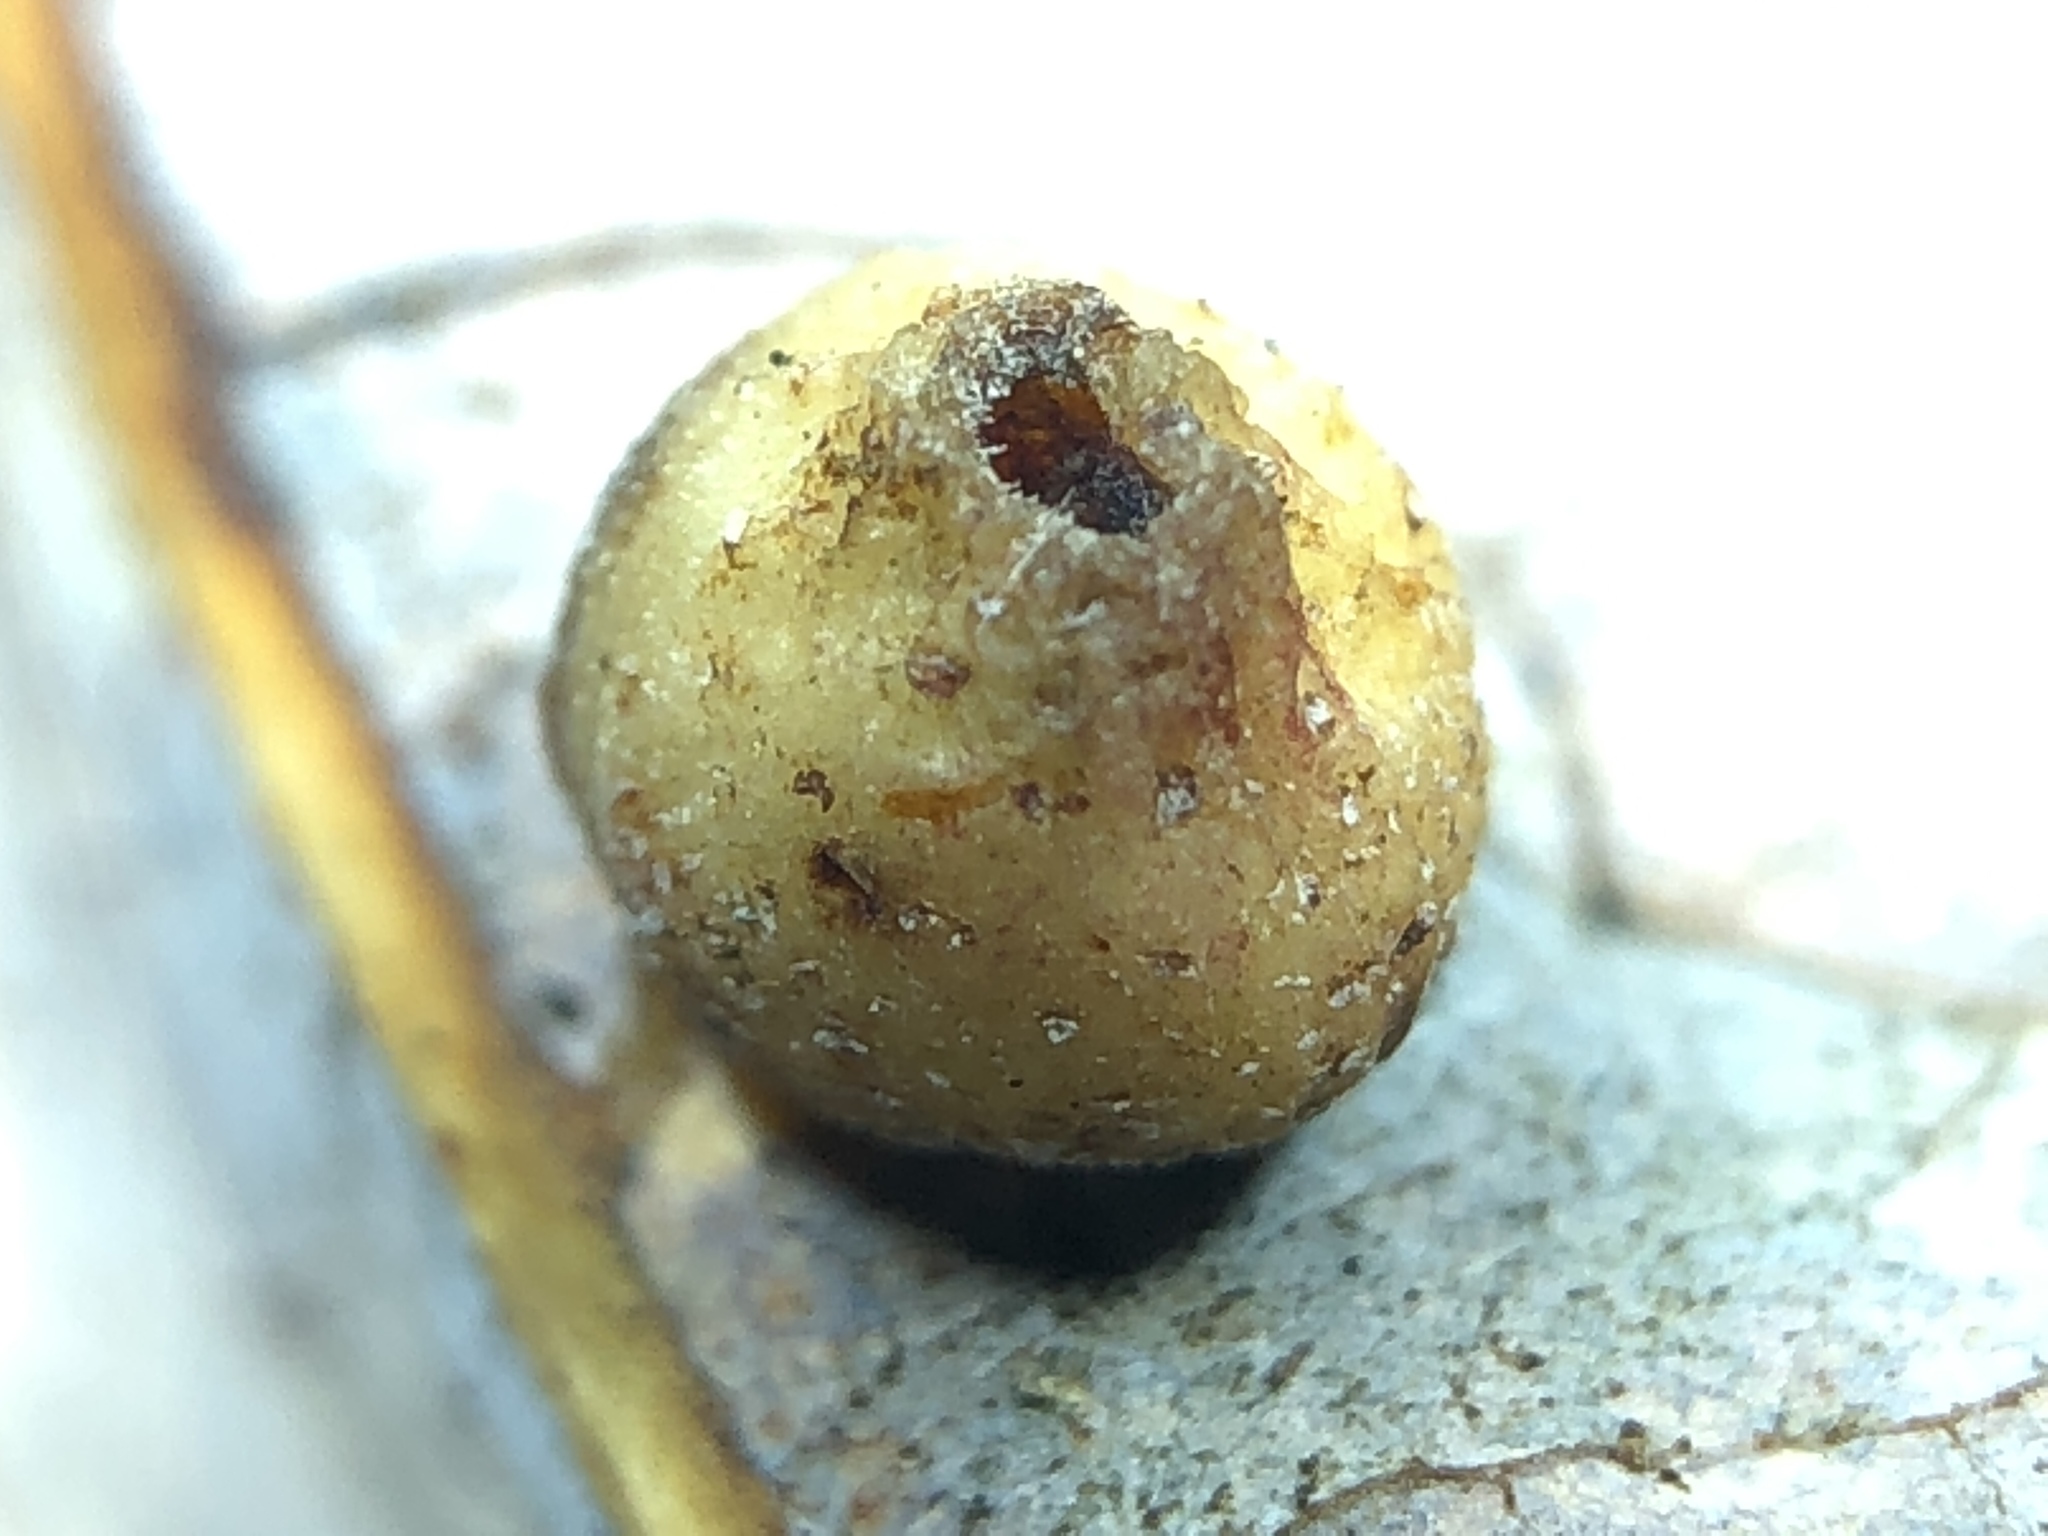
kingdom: Animalia
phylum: Arthropoda
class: Insecta
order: Diptera
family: Cecidomyiidae
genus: Iteomyia
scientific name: Iteomyia salicisverruca
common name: Willow leaf gall midge
